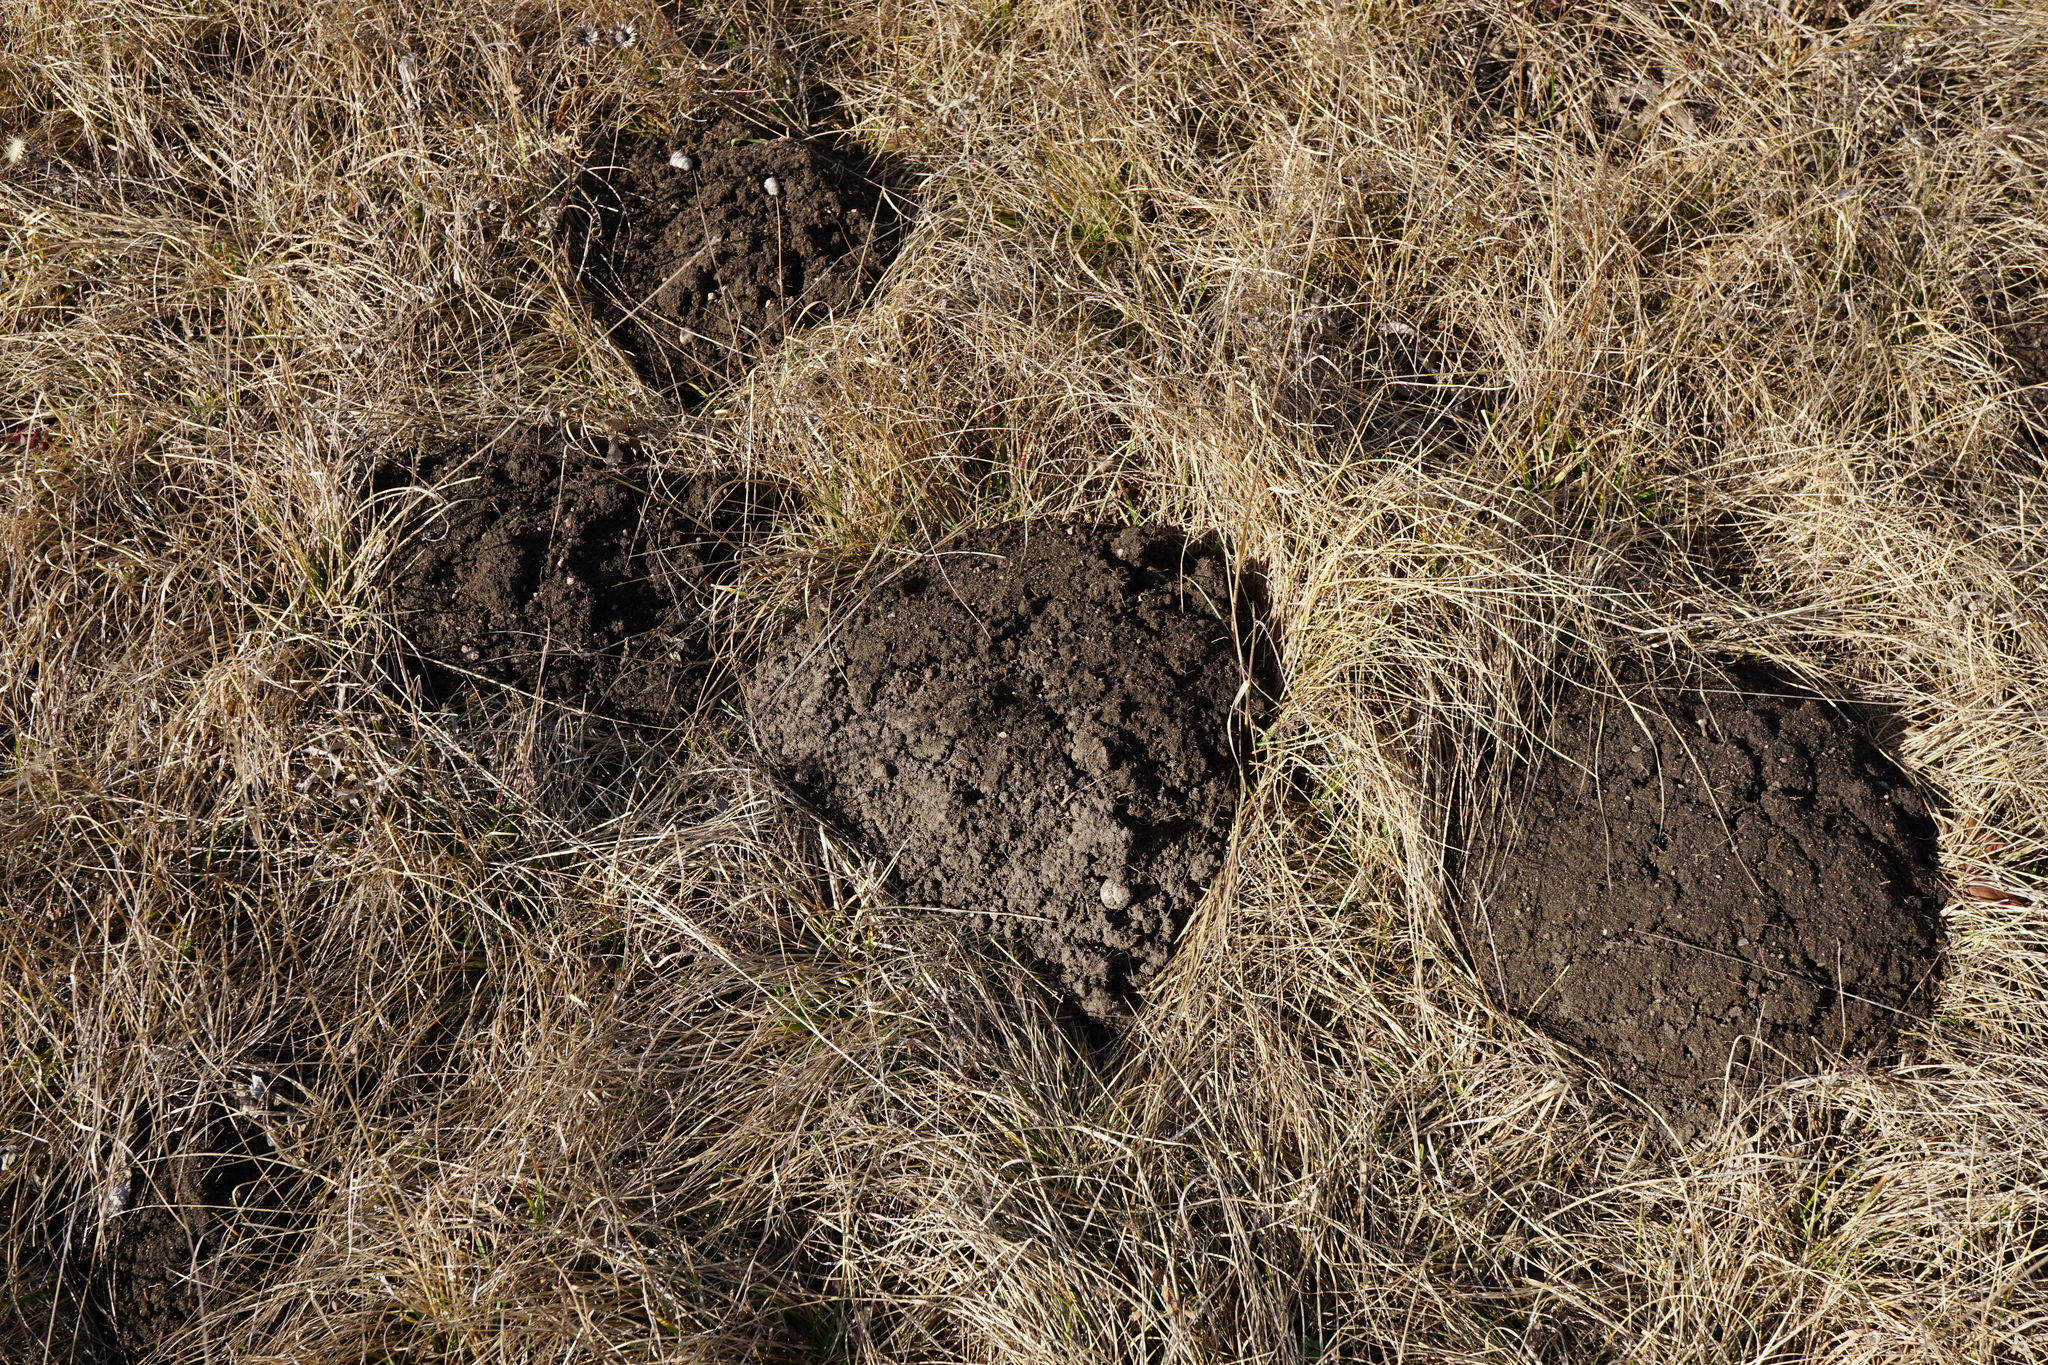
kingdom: Animalia
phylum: Chordata
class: Mammalia
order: Soricomorpha
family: Talpidae
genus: Talpa
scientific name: Talpa europaea
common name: European mole
